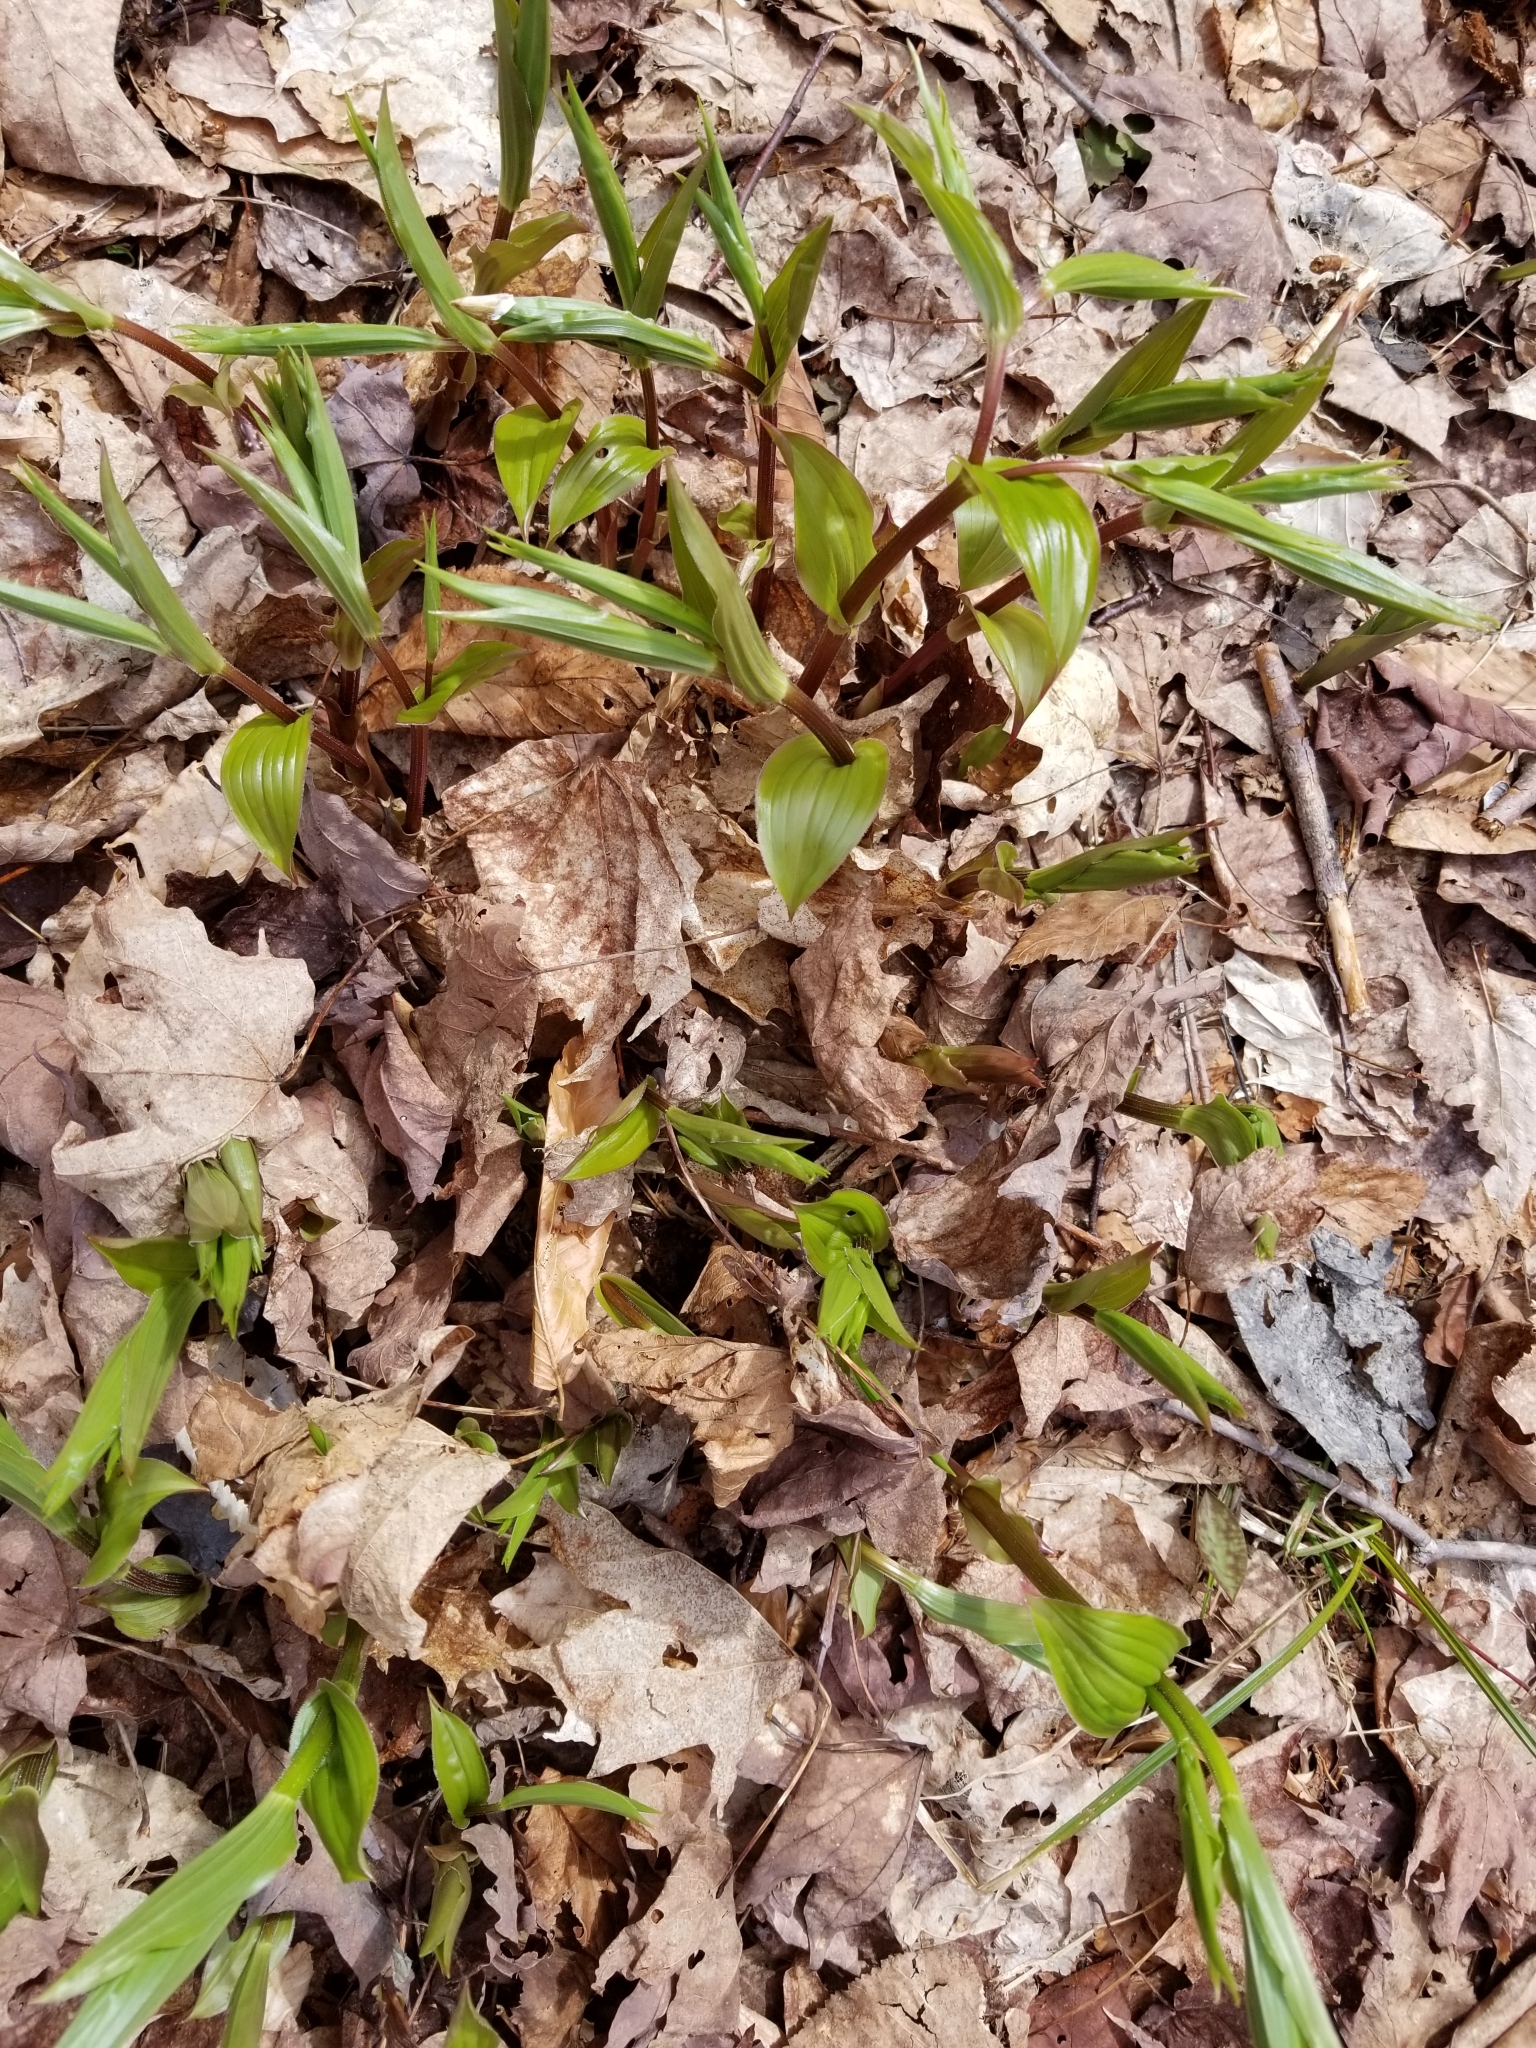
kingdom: Plantae
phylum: Tracheophyta
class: Liliopsida
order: Liliales
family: Liliaceae
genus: Streptopus
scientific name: Streptopus lanceolatus
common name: Rose mandarin
